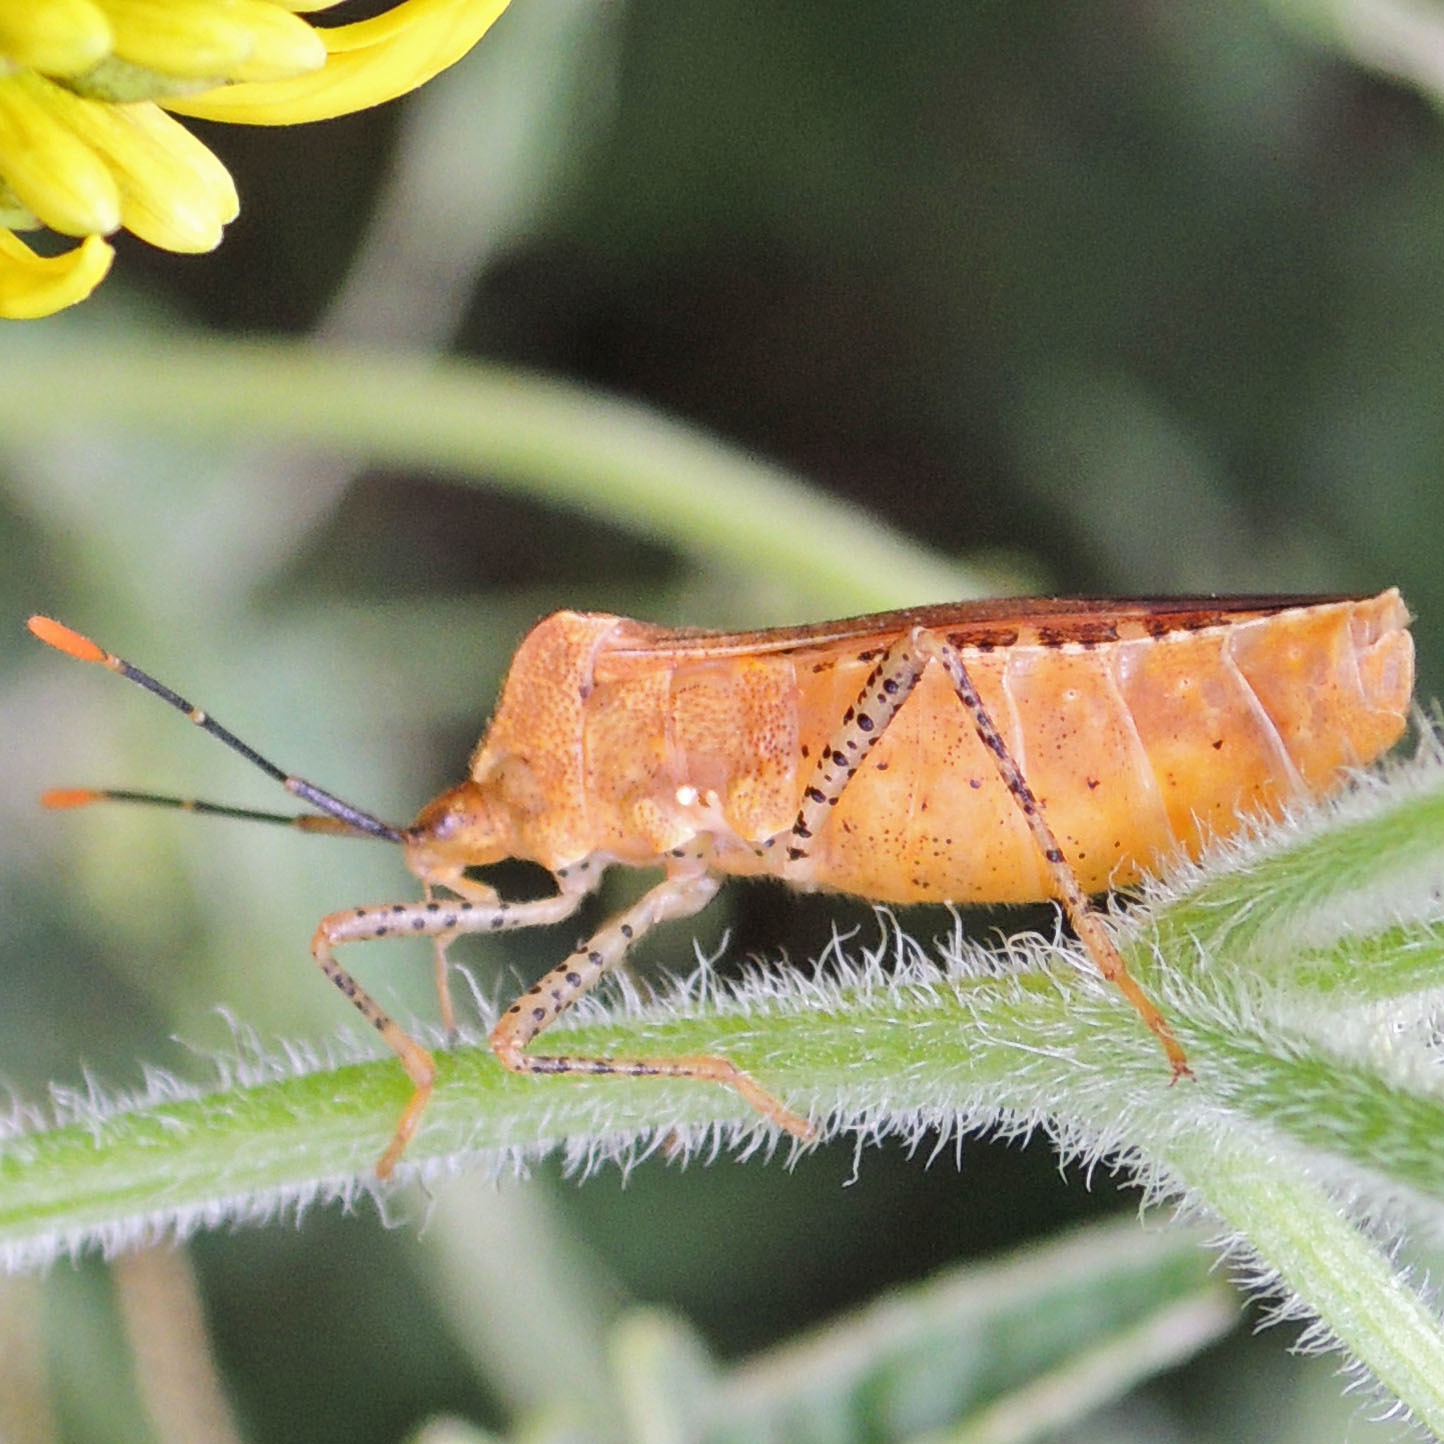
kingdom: Animalia
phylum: Arthropoda
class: Insecta
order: Hemiptera
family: Coreidae
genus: Anasa
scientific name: Anasa repetita
